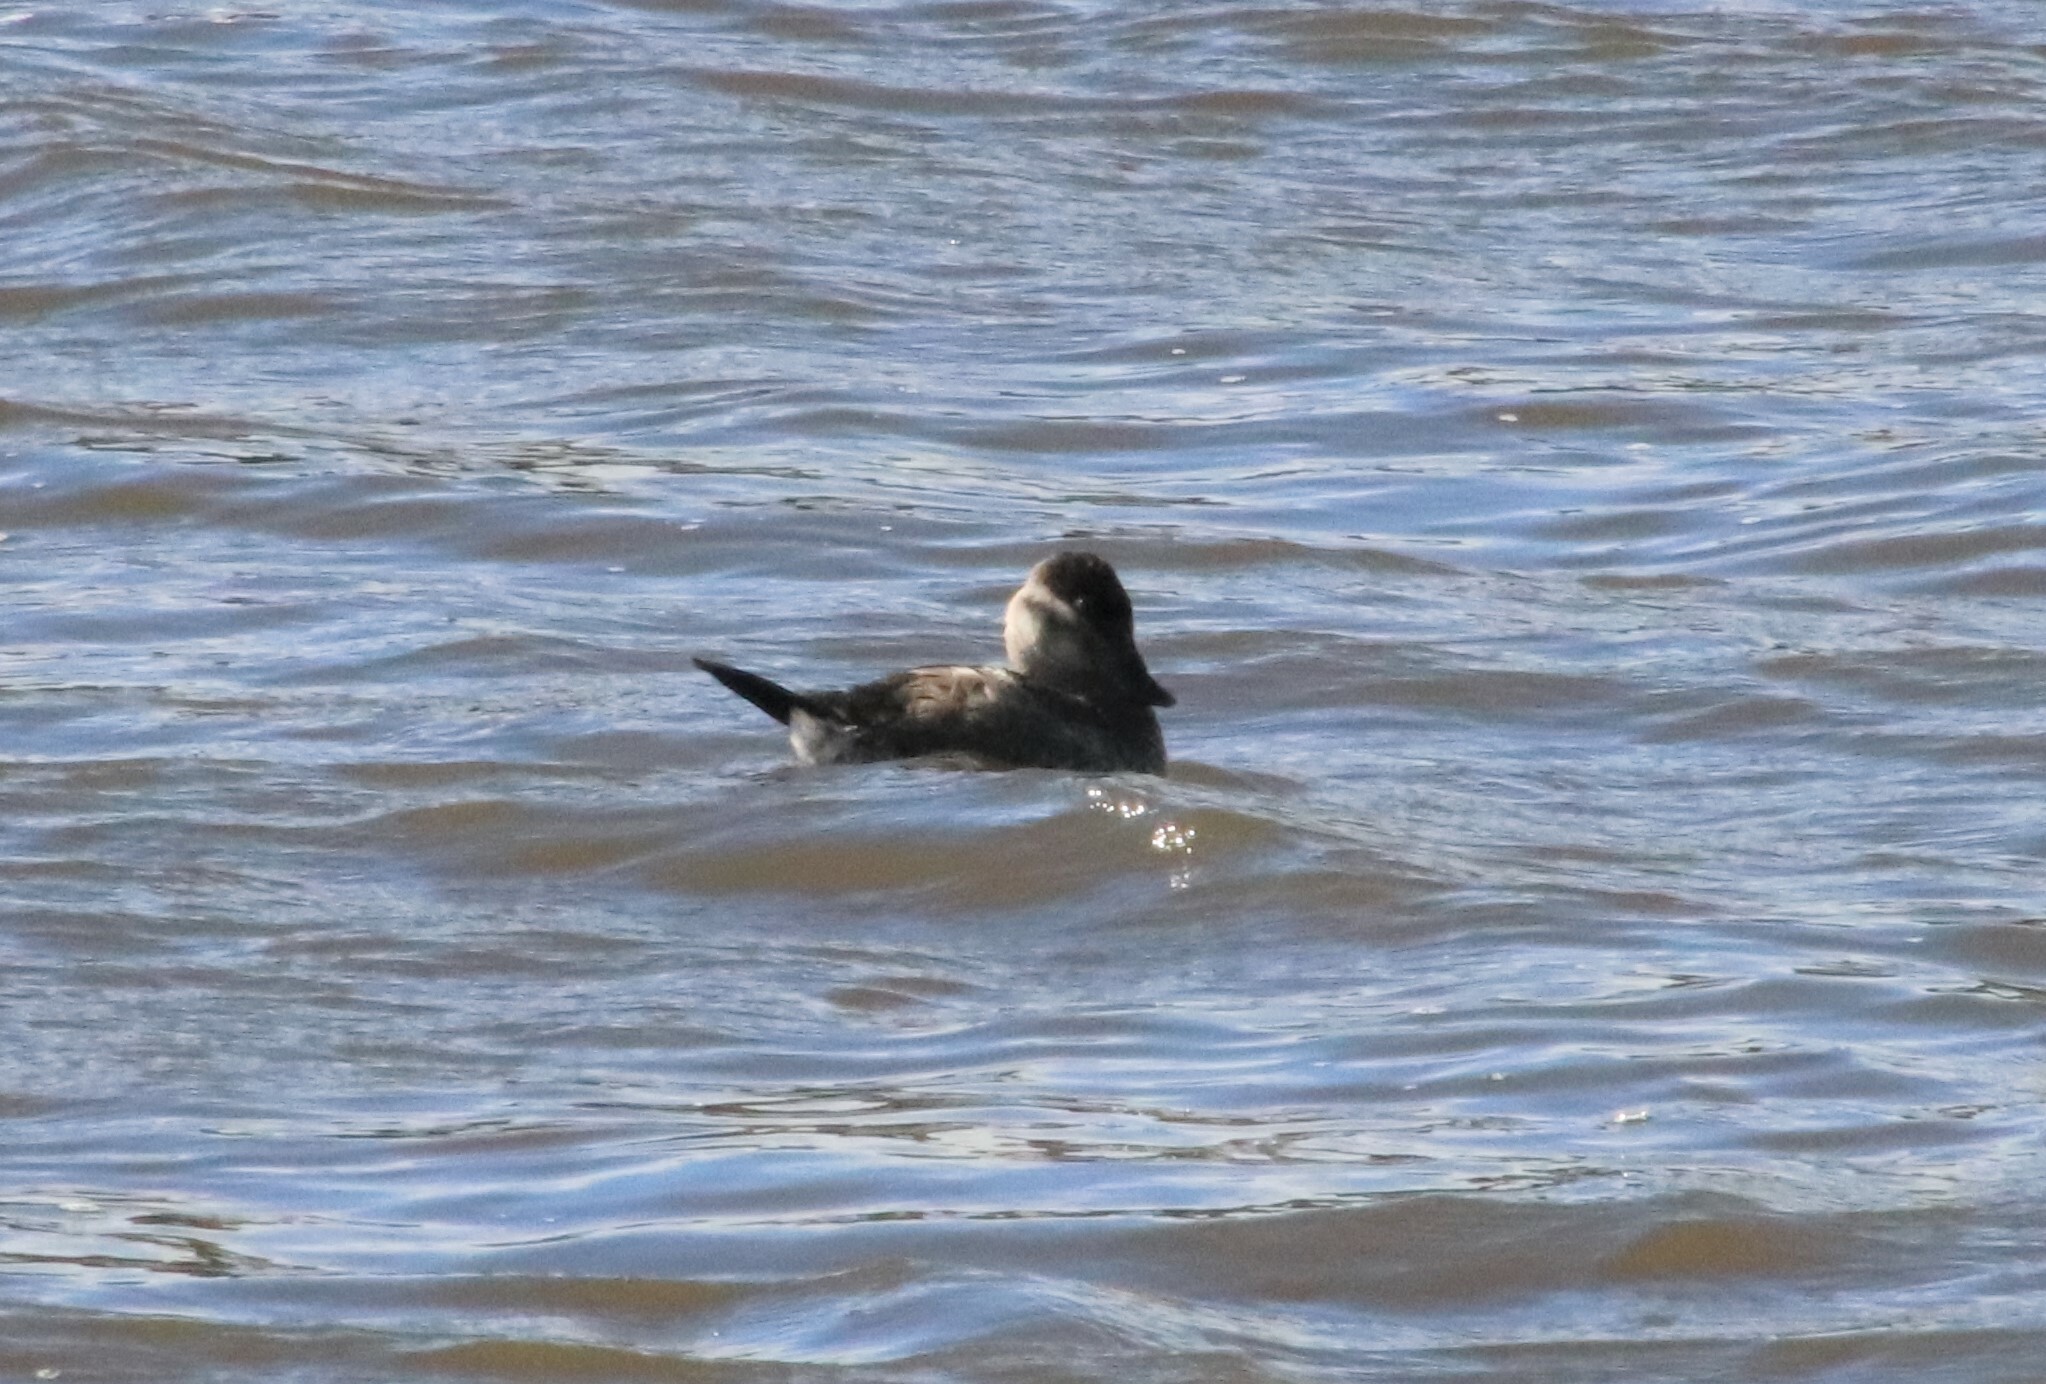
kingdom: Animalia
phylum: Chordata
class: Aves
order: Anseriformes
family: Anatidae
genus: Oxyura
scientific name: Oxyura jamaicensis
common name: Ruddy duck
